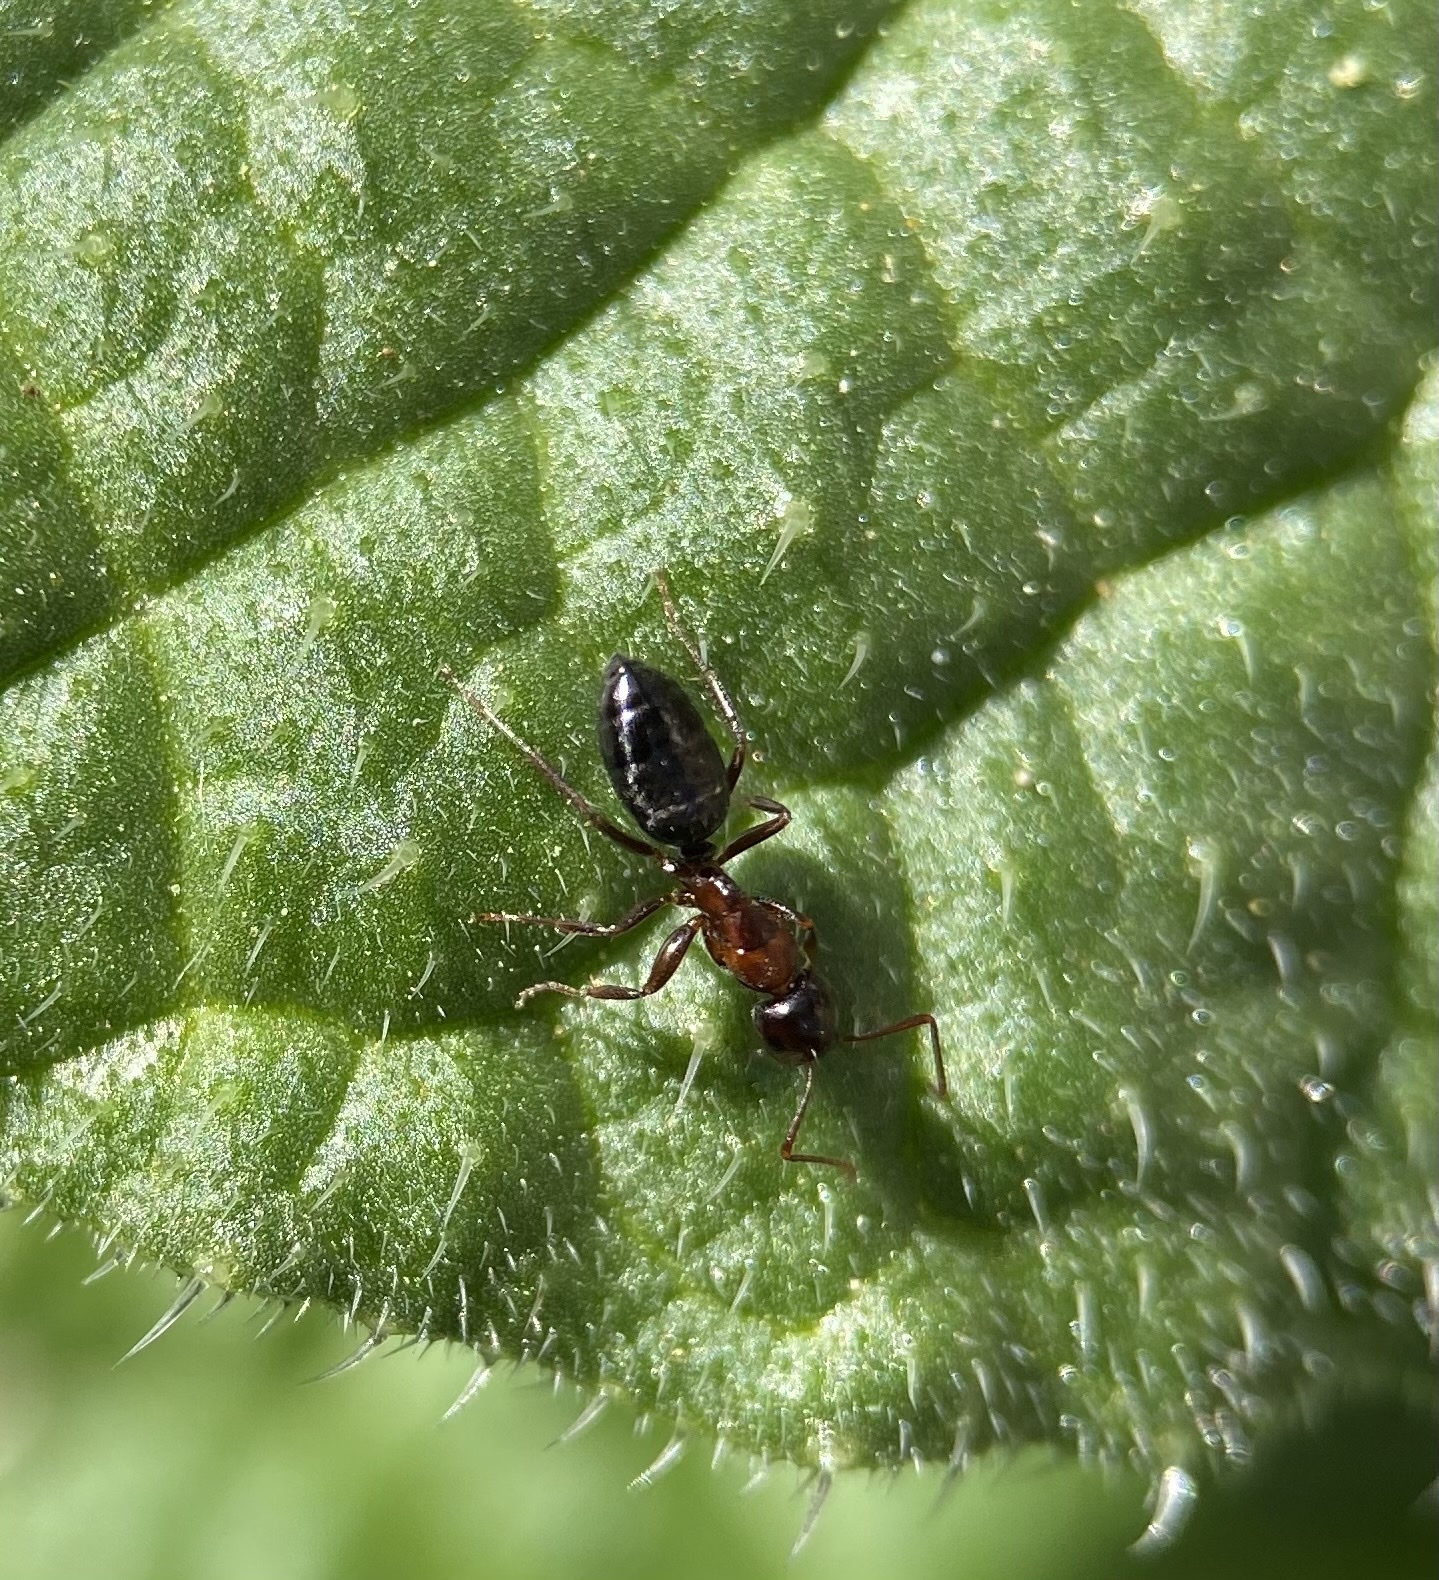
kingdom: Animalia
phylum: Arthropoda
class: Insecta
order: Hymenoptera
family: Formicidae
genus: Camponotus
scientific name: Camponotus hyatti
